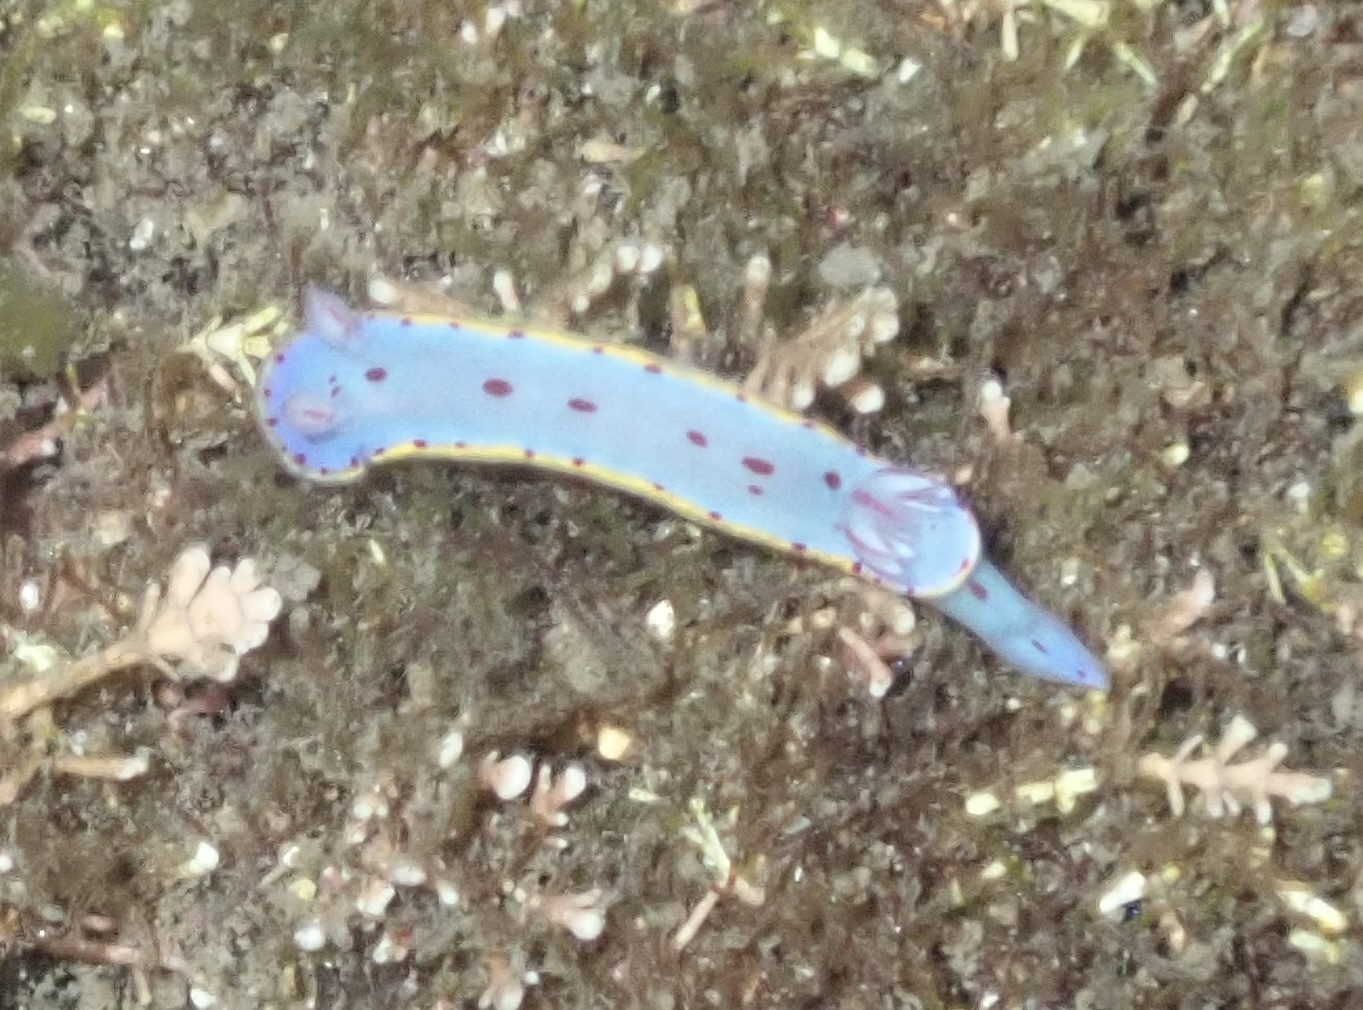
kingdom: Animalia
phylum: Mollusca
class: Gastropoda
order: Nudibranchia
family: Chromodorididae
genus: Hypselodoris
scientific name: Hypselodoris bennetti
